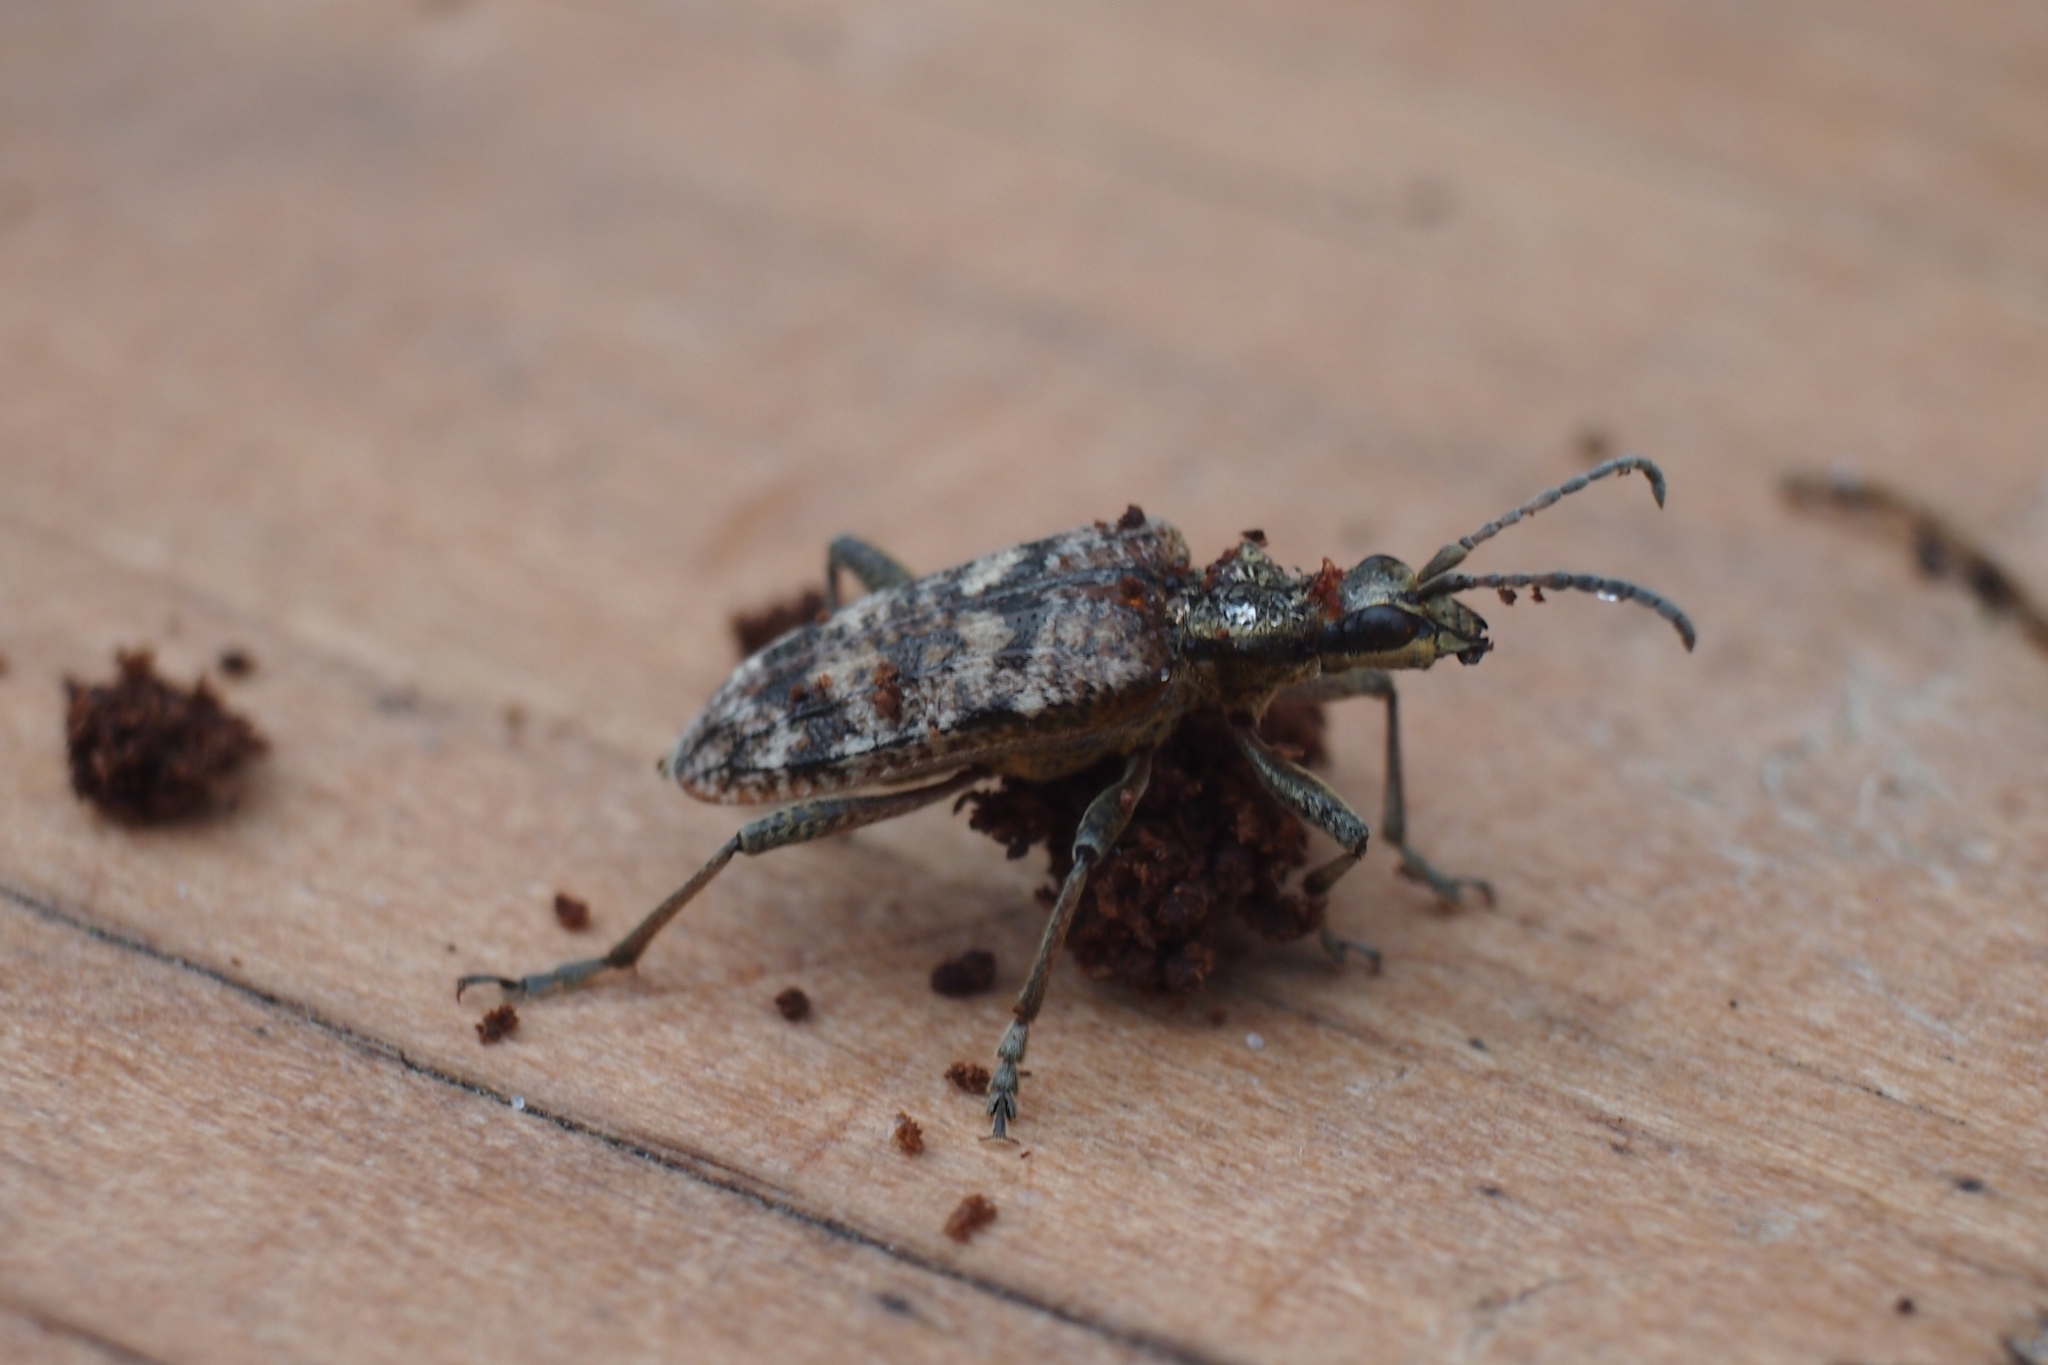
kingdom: Animalia
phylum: Arthropoda
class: Insecta
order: Coleoptera
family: Cerambycidae
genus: Rhagium
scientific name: Rhagium inquisitor
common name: Ribbed pine borer
